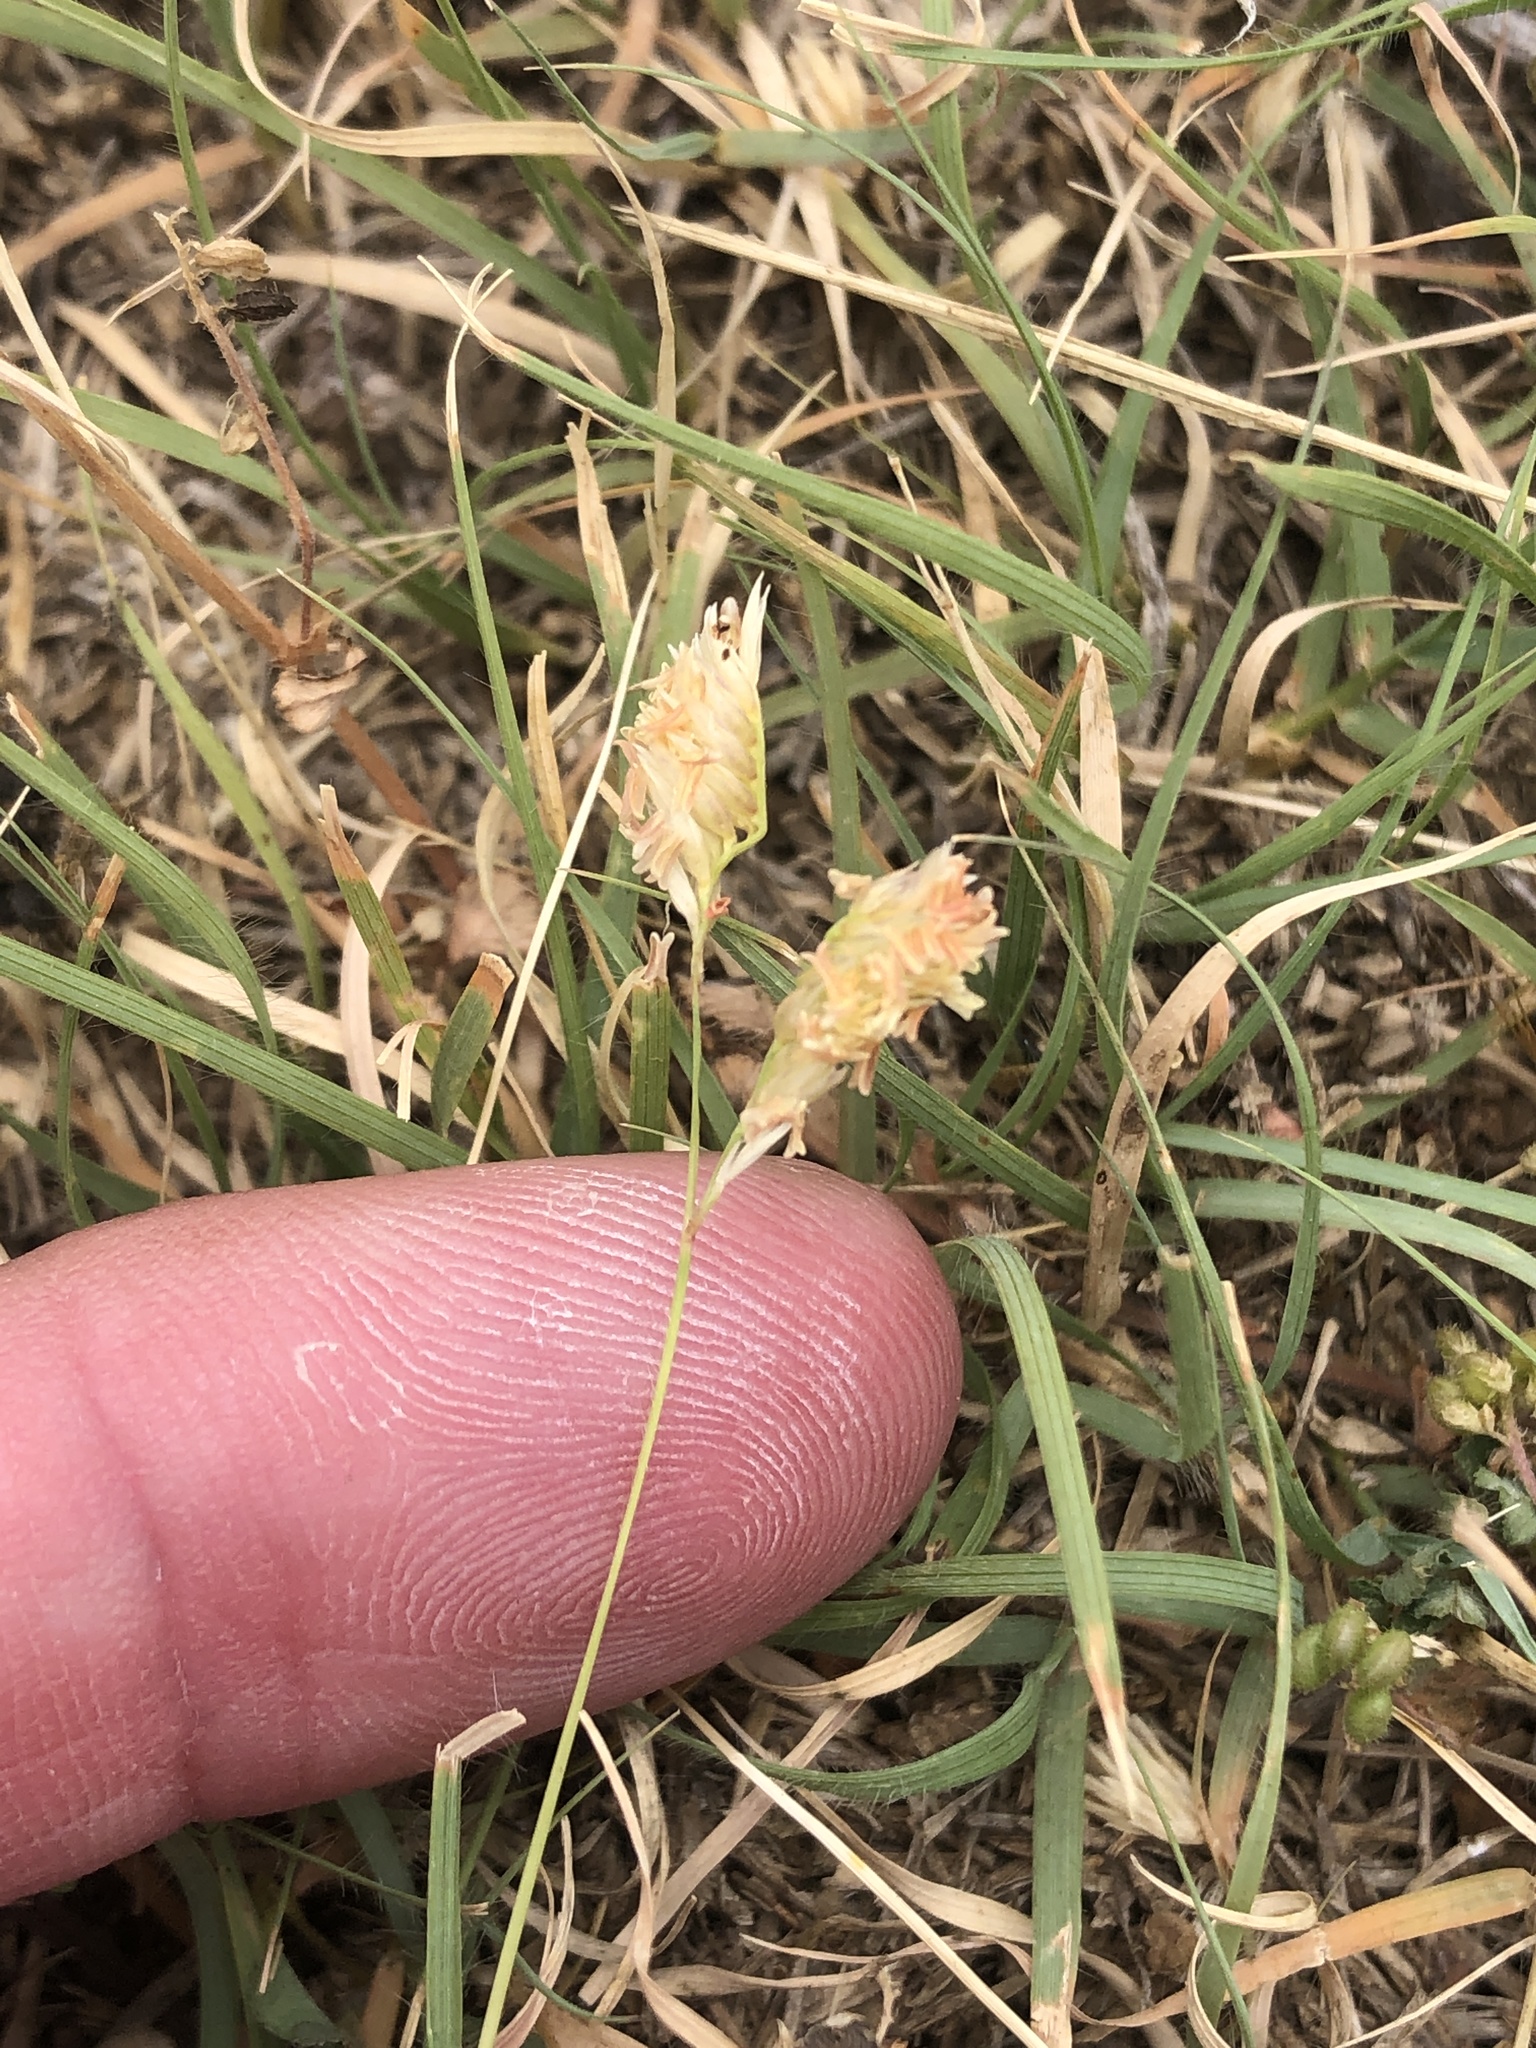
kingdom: Plantae
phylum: Tracheophyta
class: Liliopsida
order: Poales
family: Poaceae
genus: Bouteloua
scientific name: Bouteloua dactyloides
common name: Buffalo grass
